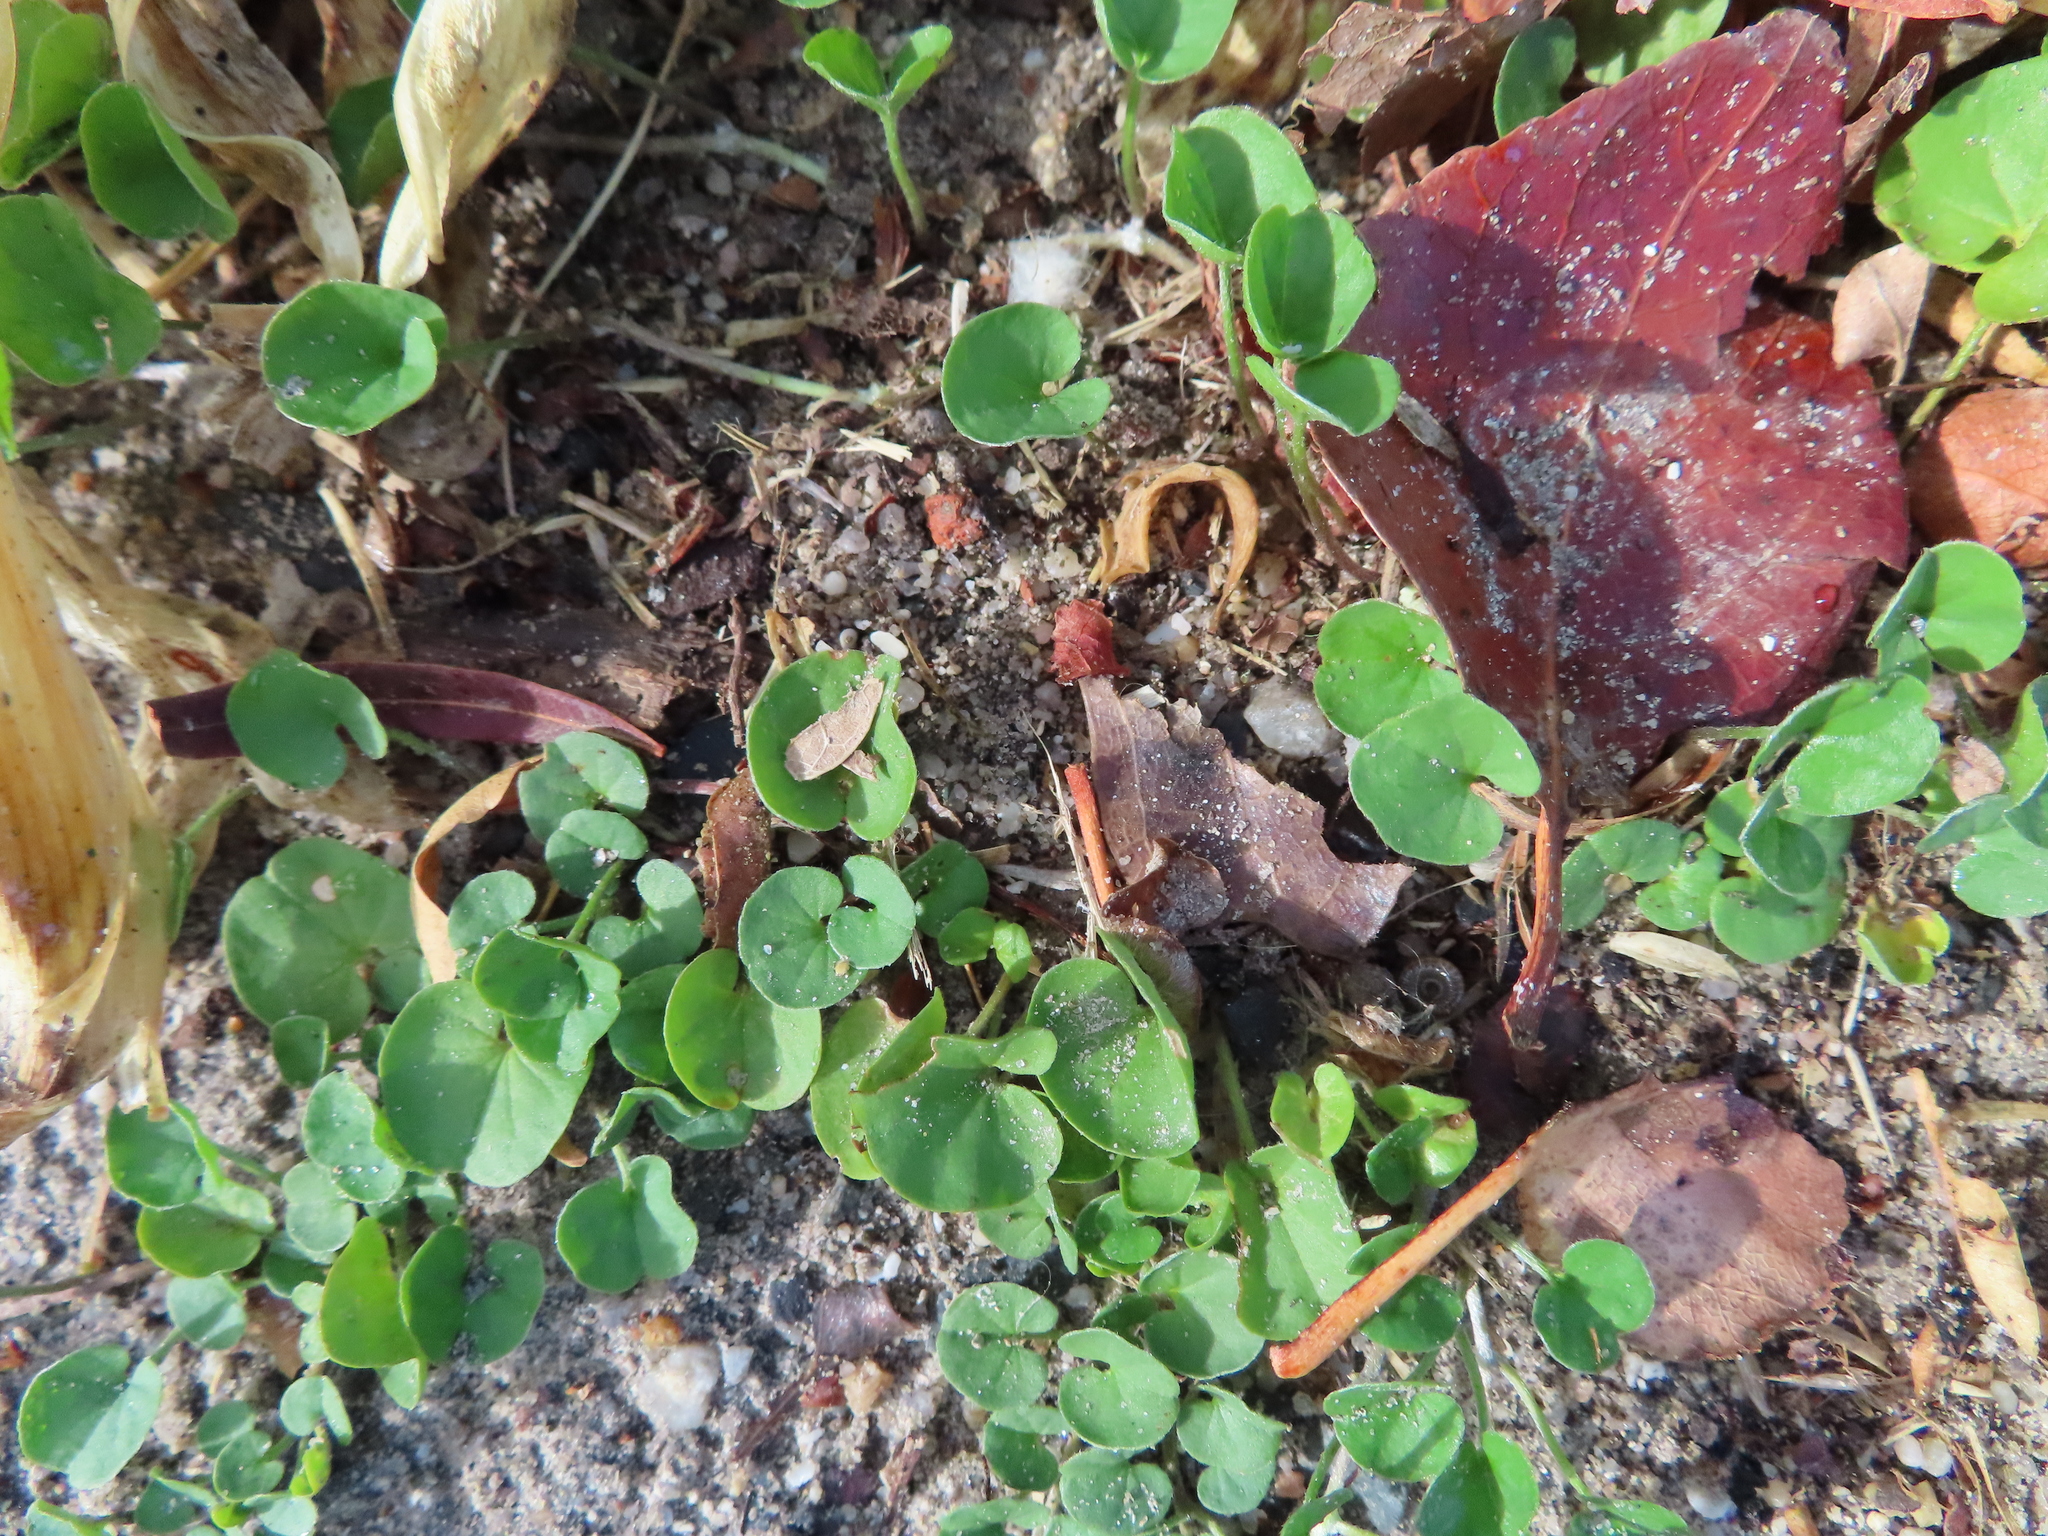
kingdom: Plantae
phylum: Tracheophyta
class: Magnoliopsida
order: Solanales
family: Convolvulaceae
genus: Dichondra
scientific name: Dichondra micrantha
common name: Kidneyweed
